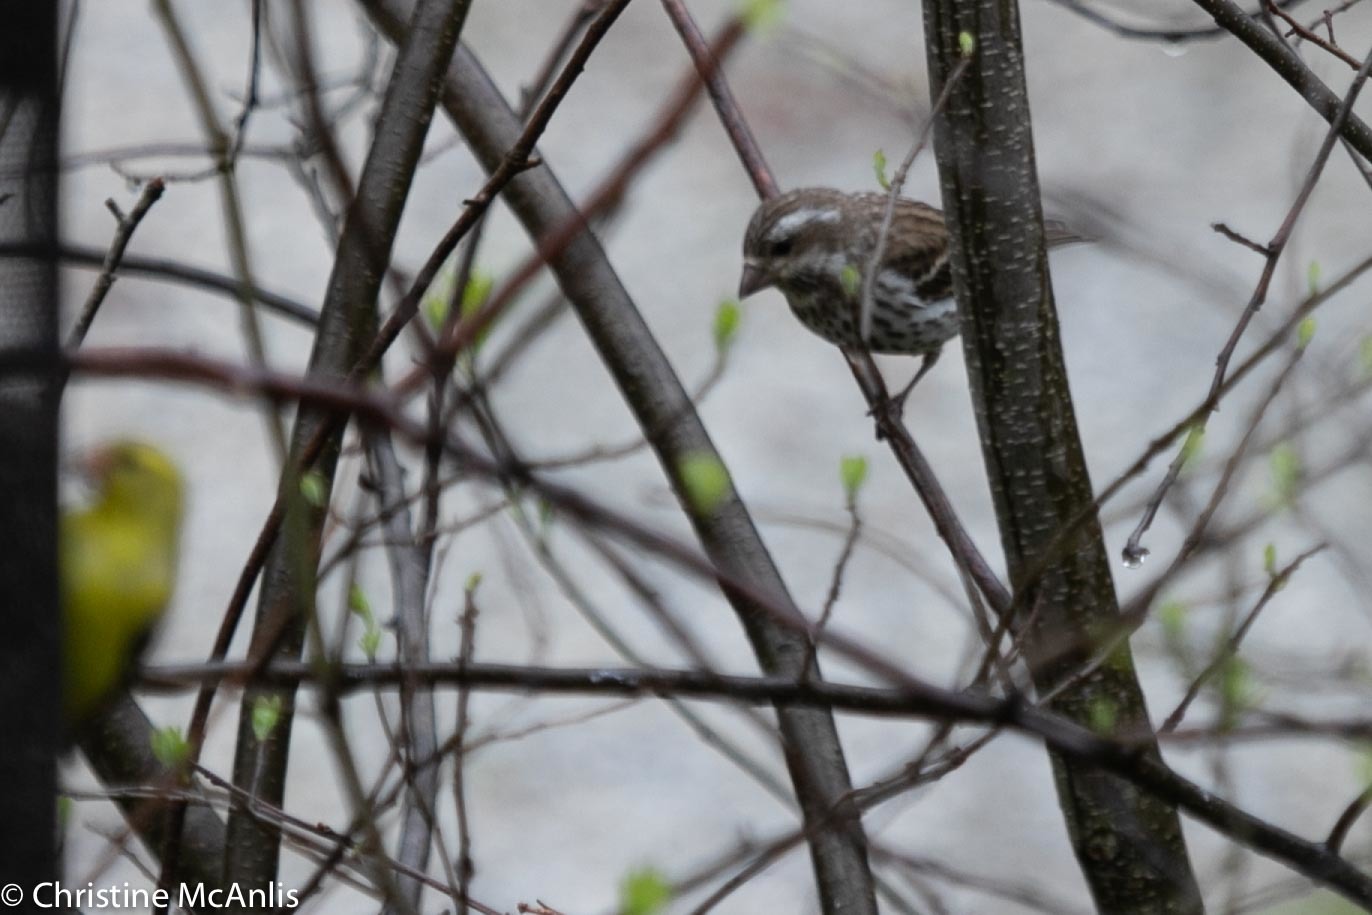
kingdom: Animalia
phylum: Chordata
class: Aves
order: Passeriformes
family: Fringillidae
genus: Haemorhous
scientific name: Haemorhous purpureus
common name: Purple finch
